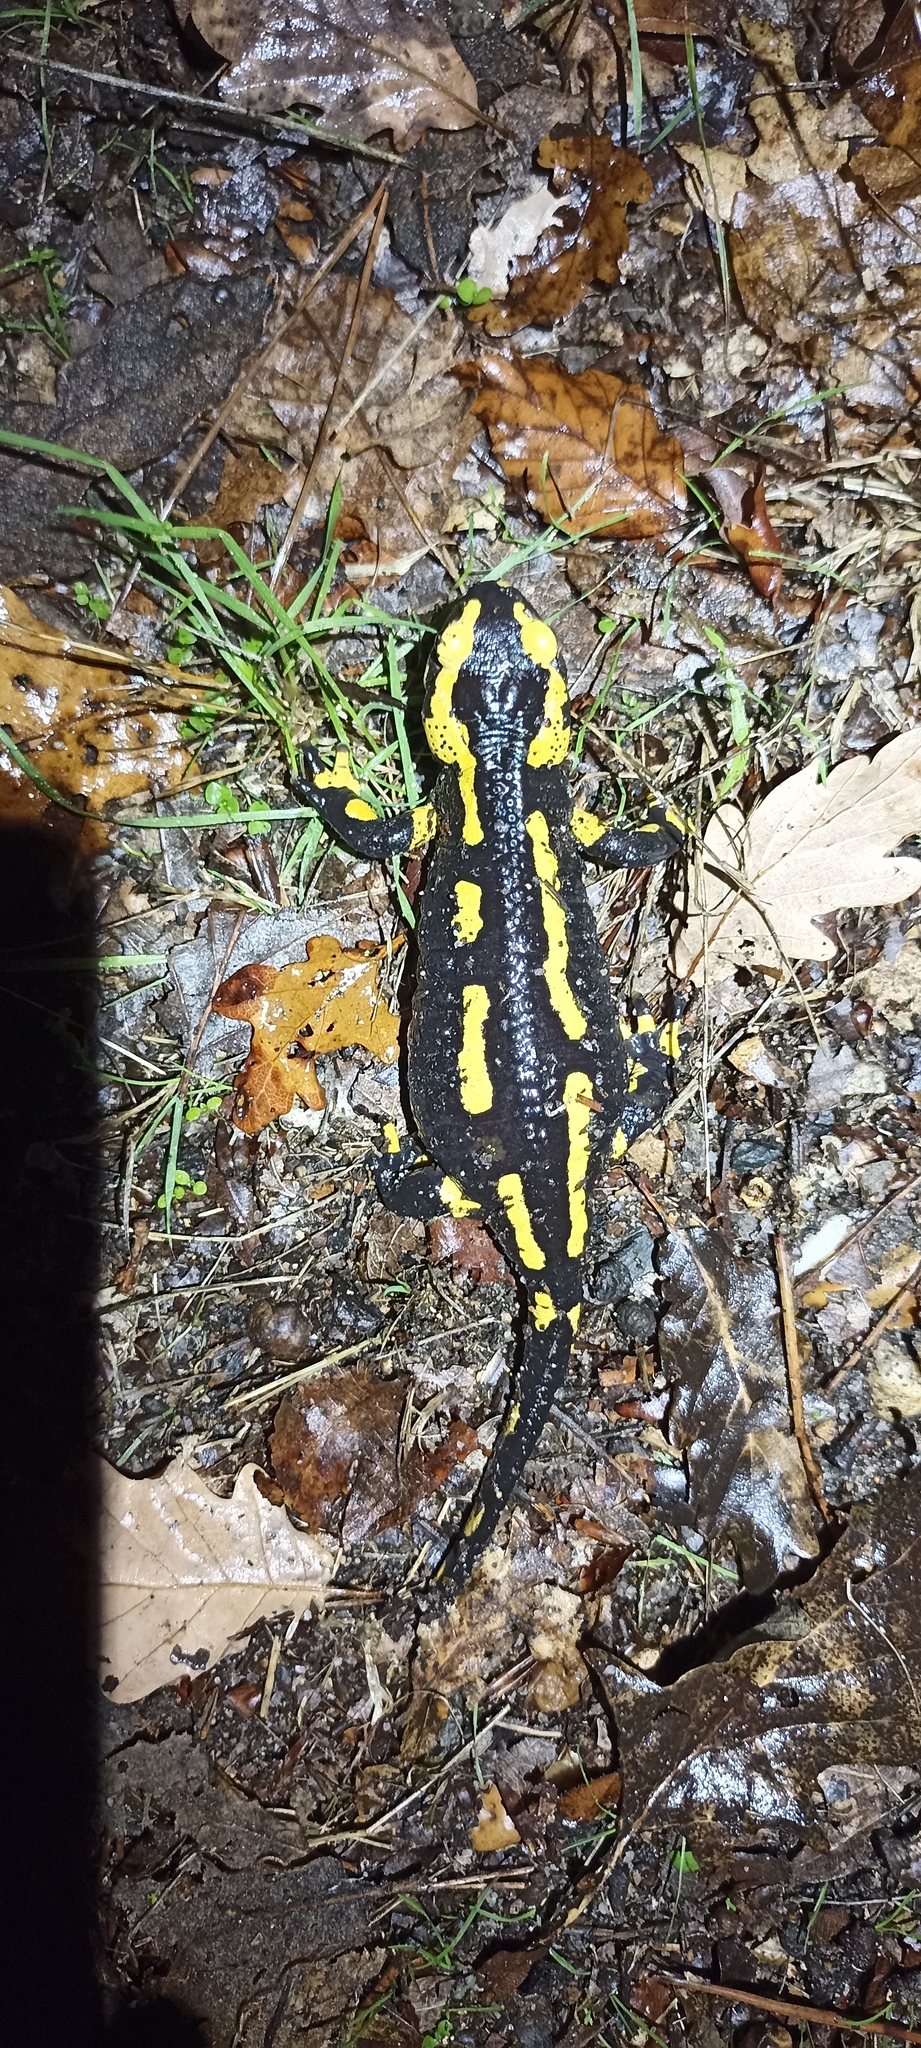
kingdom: Animalia
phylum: Chordata
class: Amphibia
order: Caudata
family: Salamandridae
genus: Salamandra
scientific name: Salamandra salamandra
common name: Fire salamander
